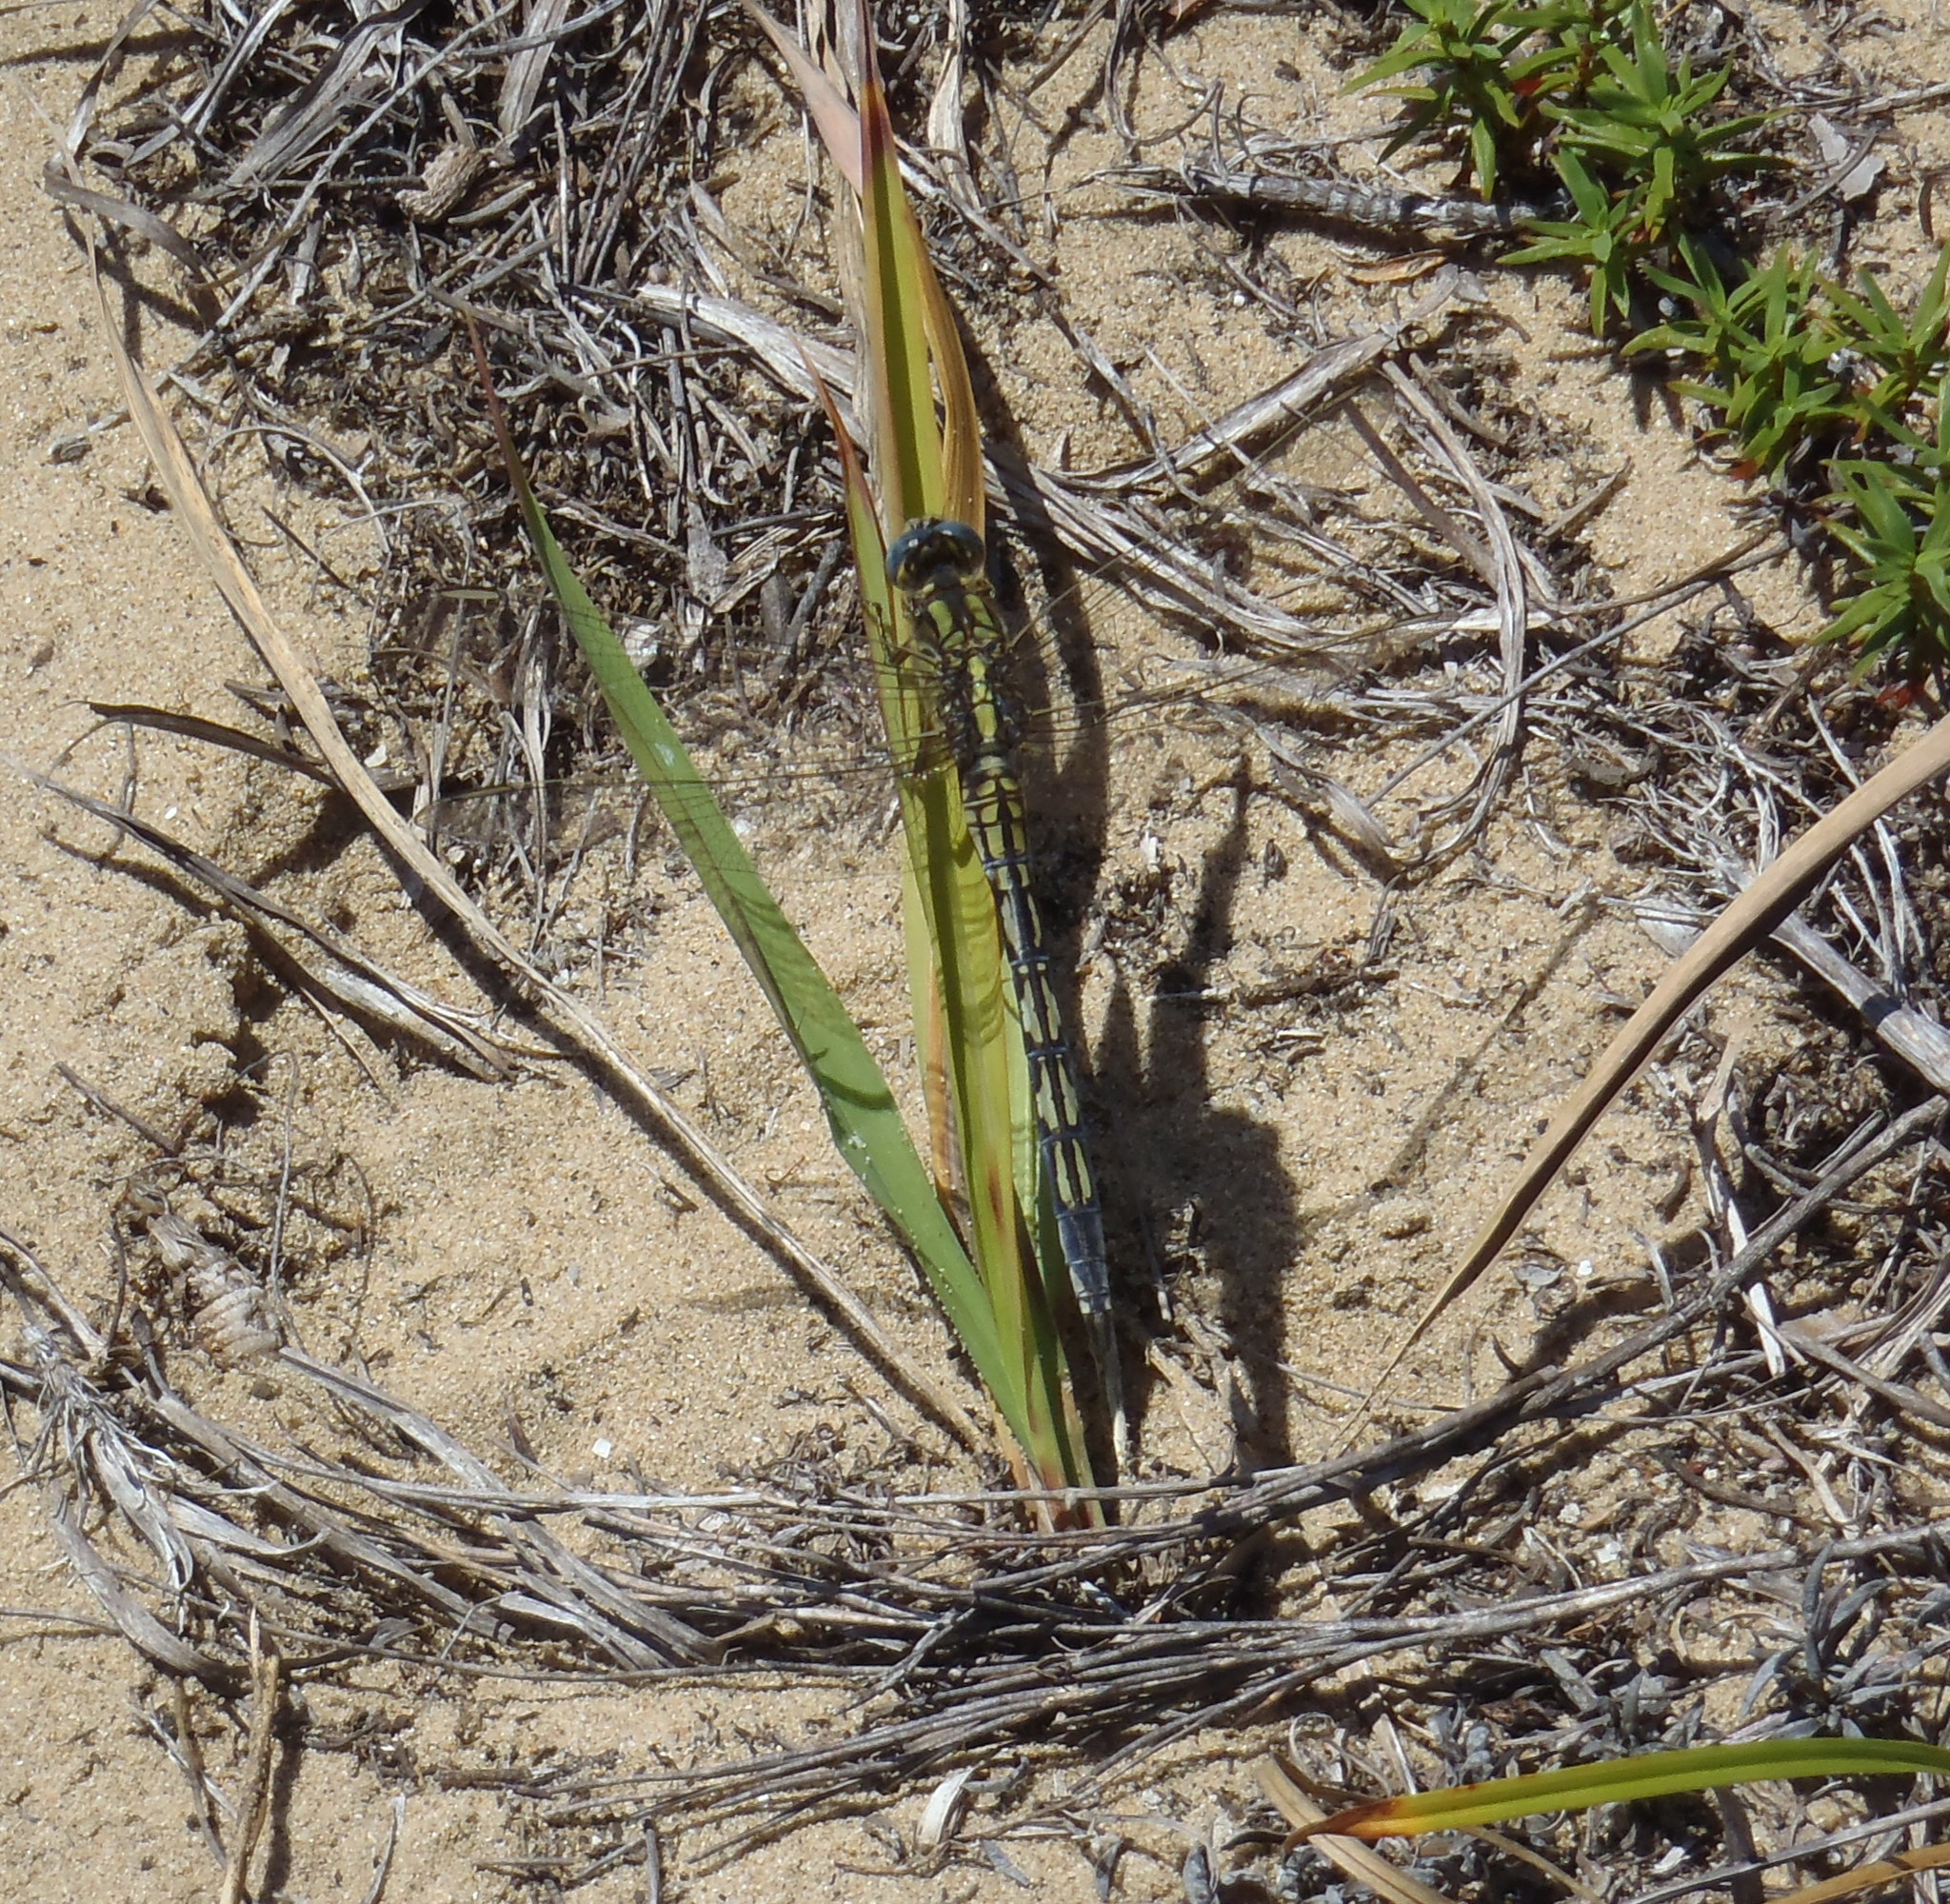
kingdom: Animalia
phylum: Arthropoda
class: Insecta
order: Odonata
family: Libellulidae
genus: Orthetrum
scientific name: Orthetrum trinacria
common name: Long skimmer
